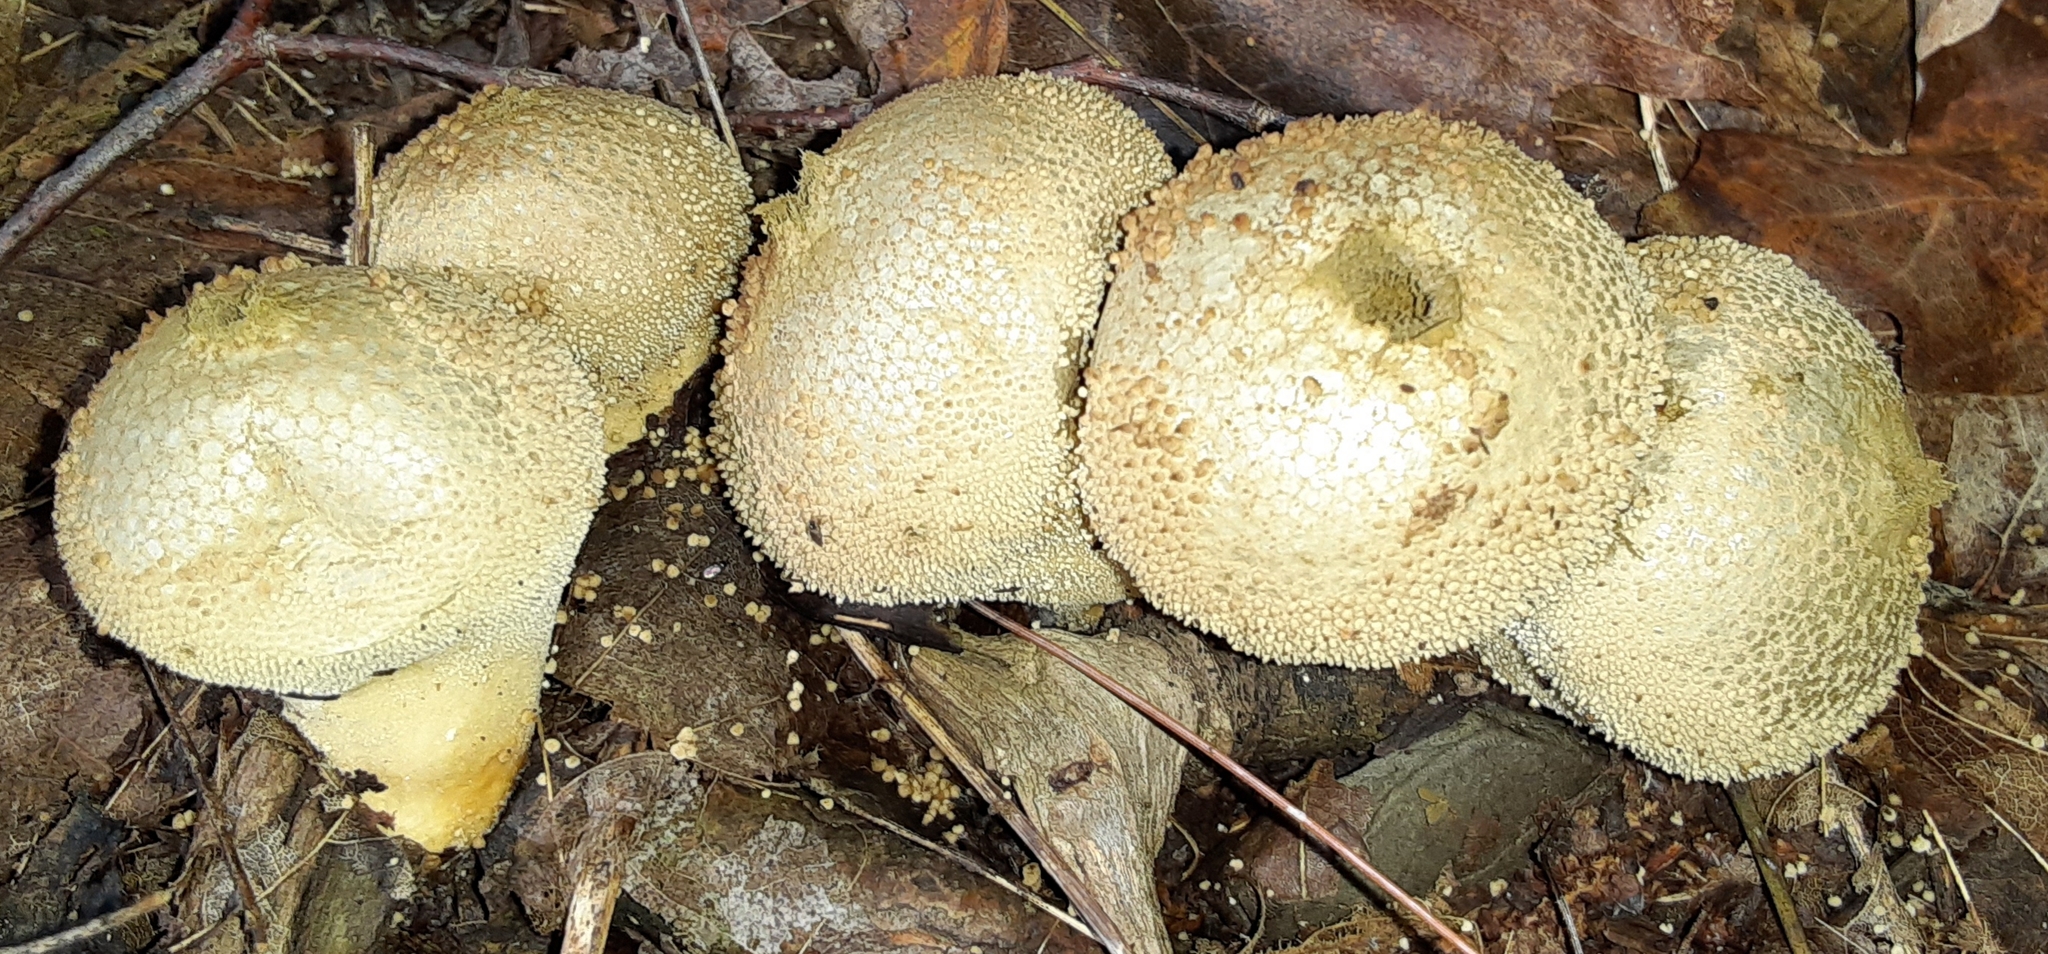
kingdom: Fungi
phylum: Basidiomycota
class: Agaricomycetes
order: Agaricales
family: Lycoperdaceae
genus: Lycoperdon
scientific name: Lycoperdon perlatum
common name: Common puffball
